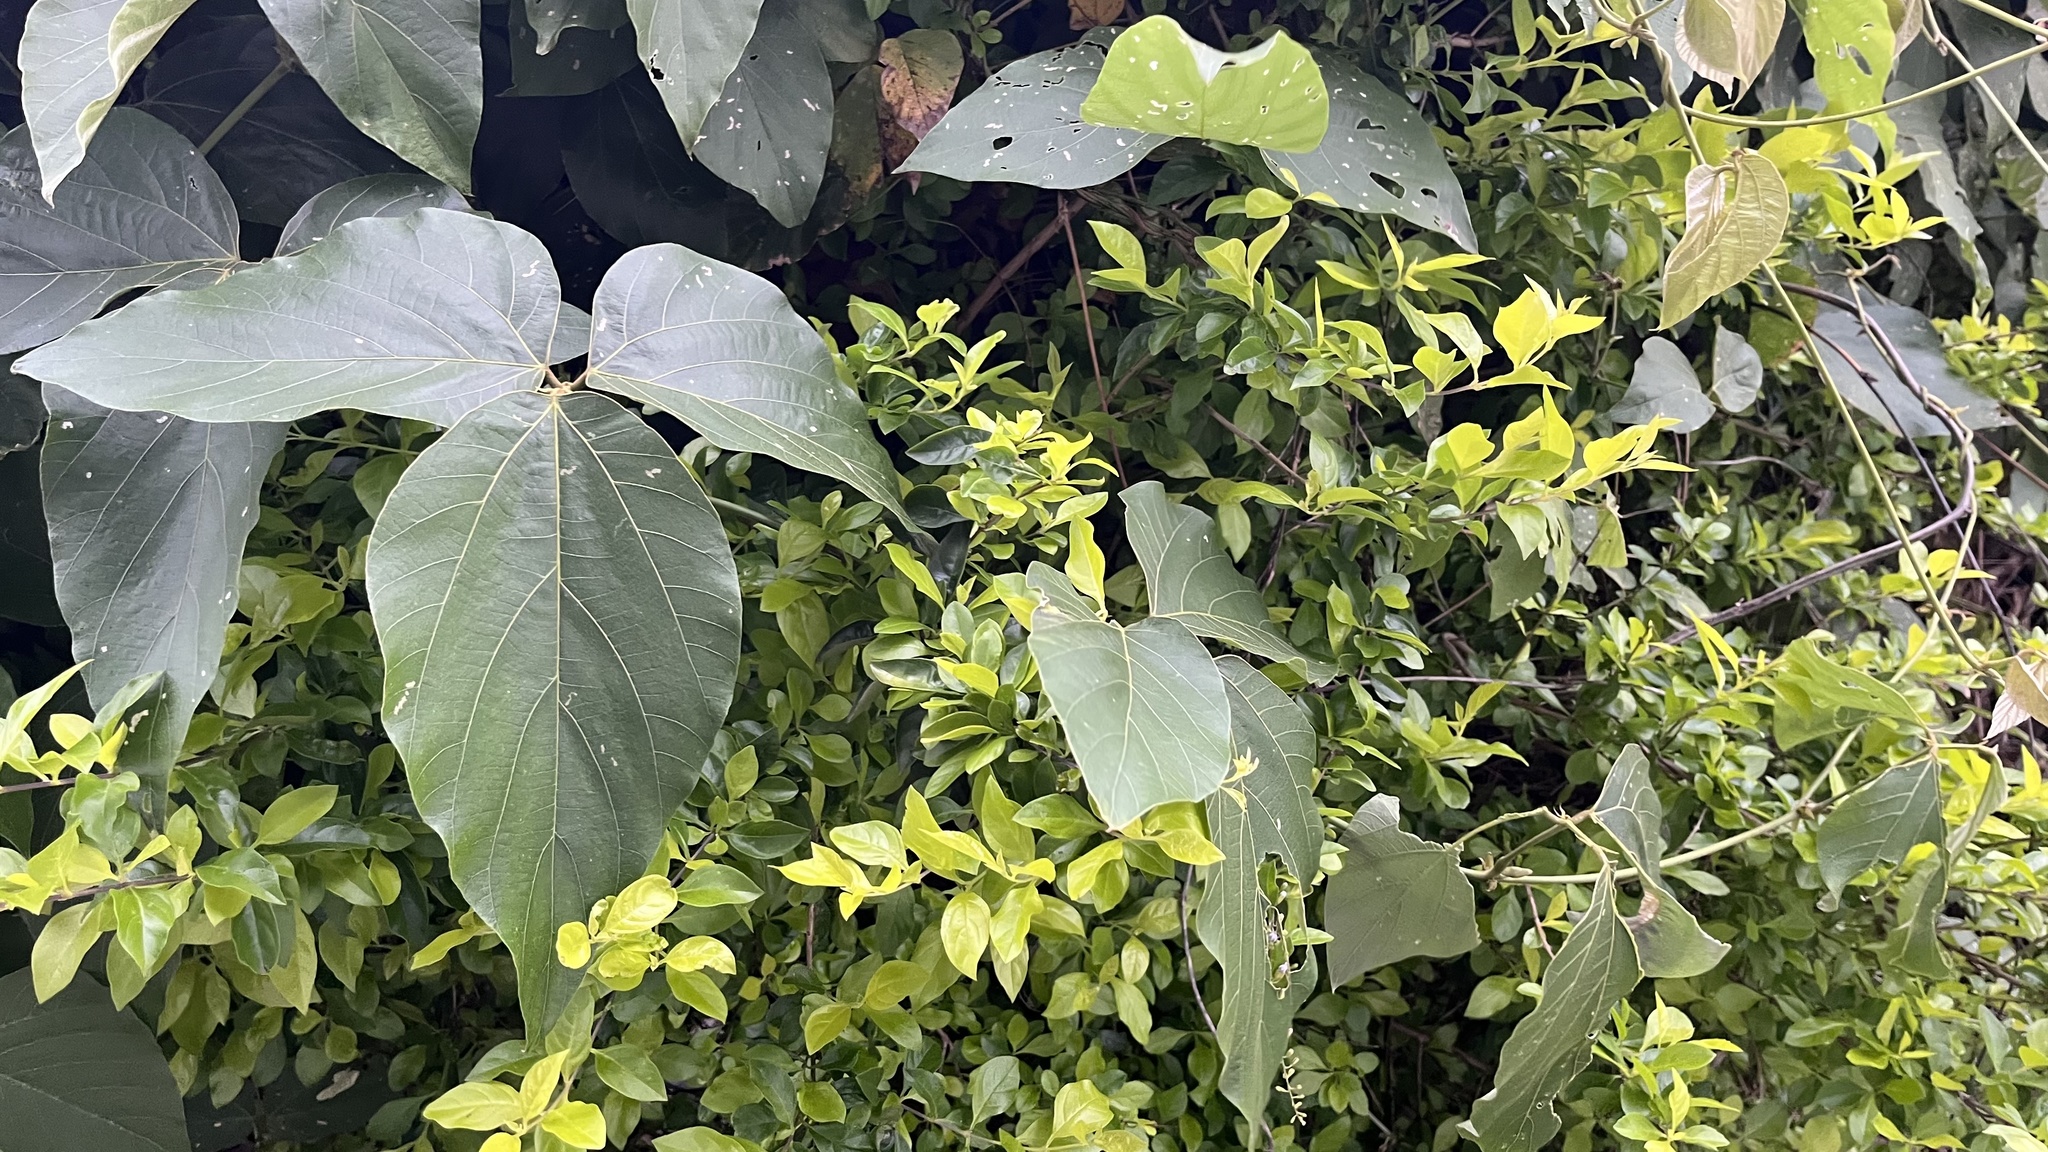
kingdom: Plantae
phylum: Tracheophyta
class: Magnoliopsida
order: Fabales
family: Fabaceae
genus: Pueraria
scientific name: Pueraria montana
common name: Kudzu
